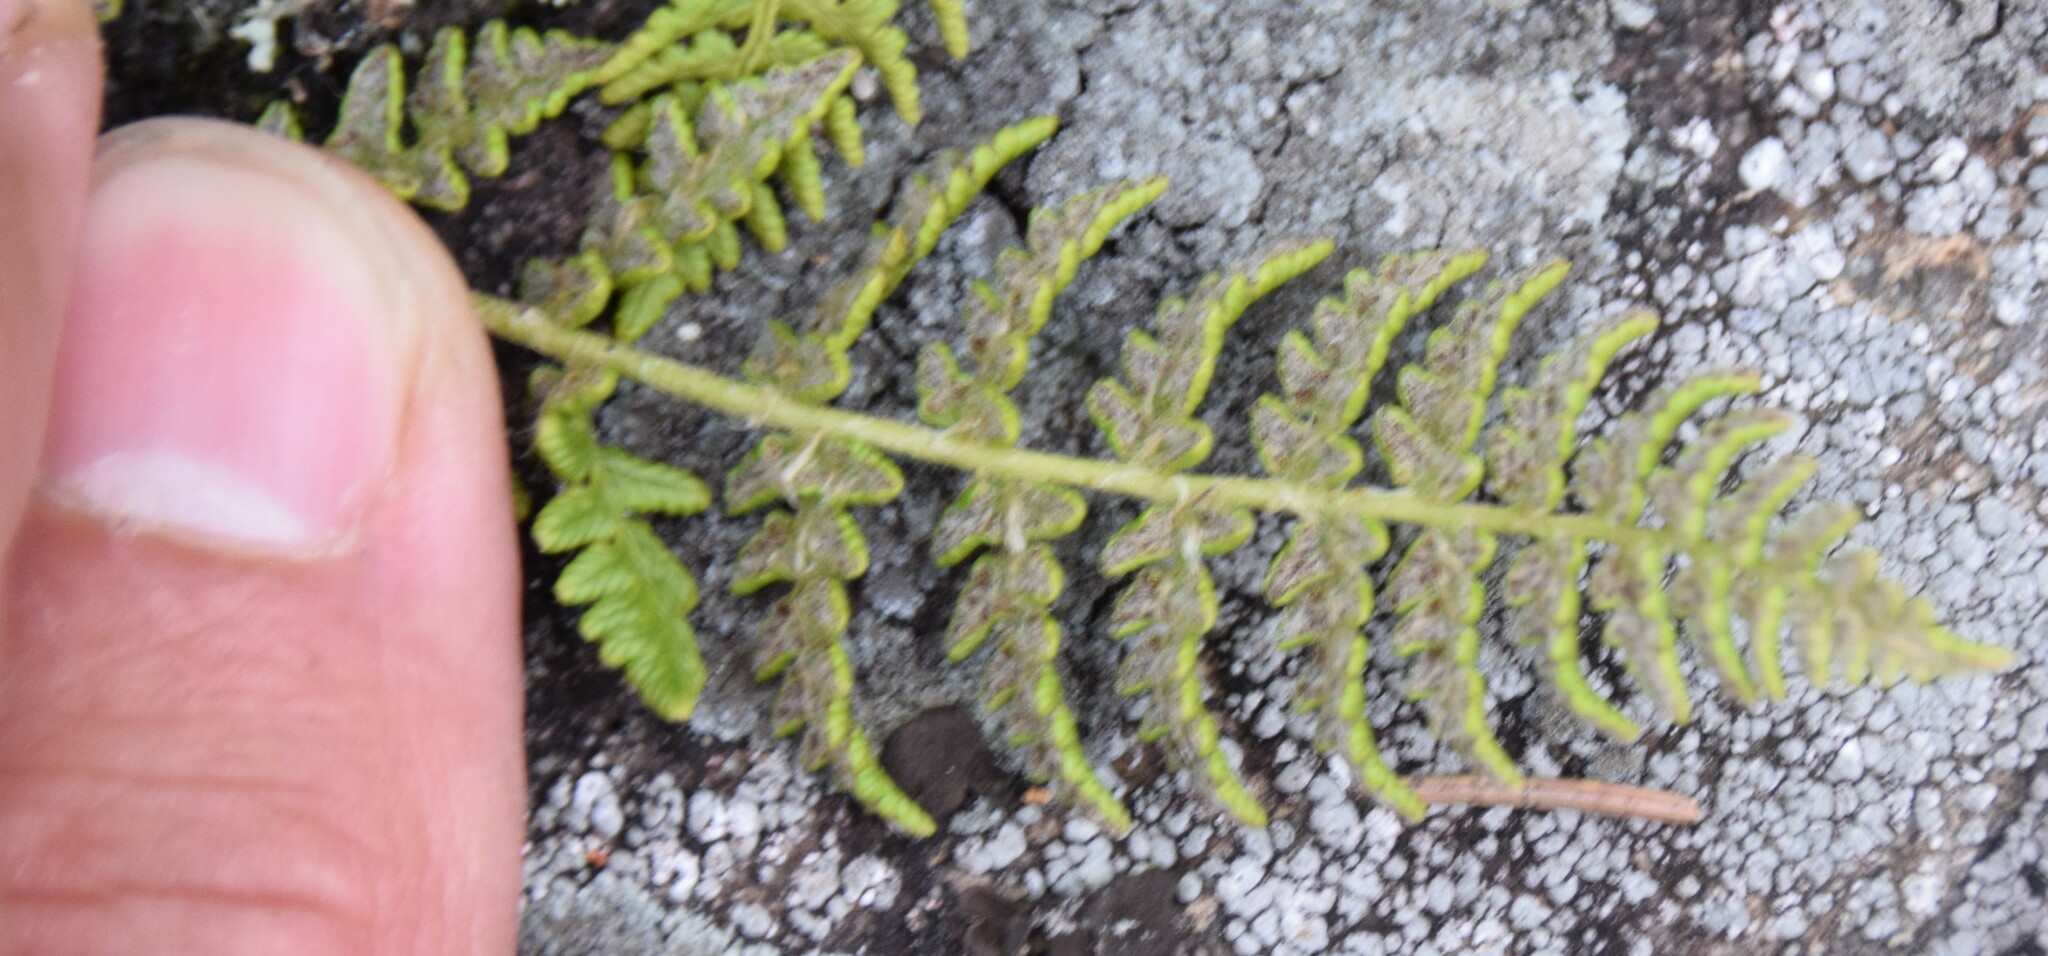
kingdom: Plantae
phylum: Tracheophyta
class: Polypodiopsida
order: Polypodiales
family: Woodsiaceae
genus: Woodsia
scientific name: Woodsia ilvensis
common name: Fragrant woodsia
